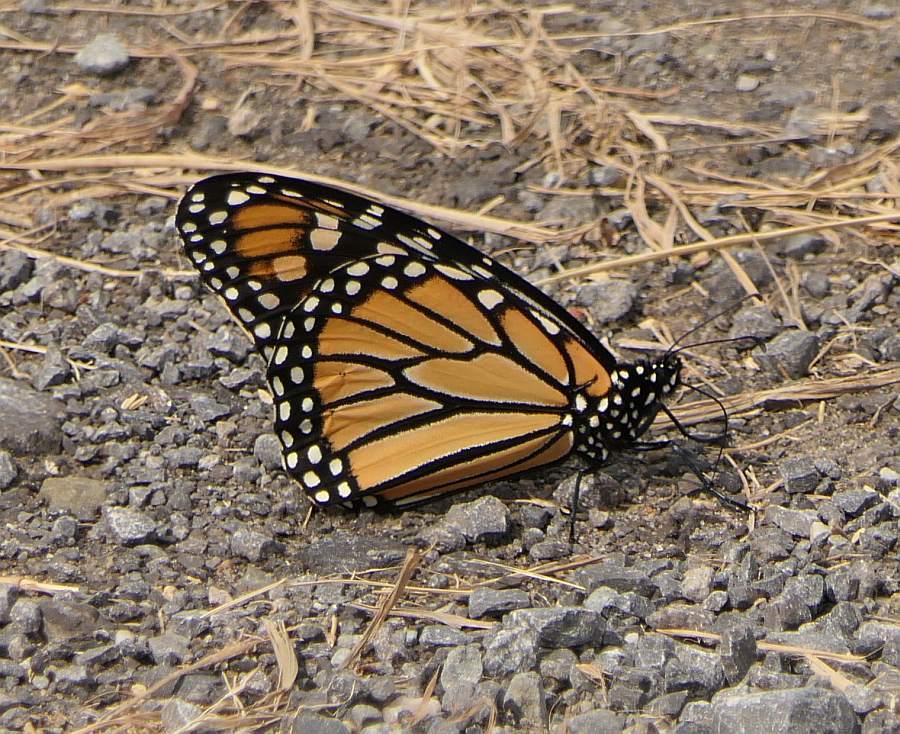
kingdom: Animalia
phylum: Arthropoda
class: Insecta
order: Lepidoptera
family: Nymphalidae
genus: Danaus
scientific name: Danaus plexippus
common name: Monarch
